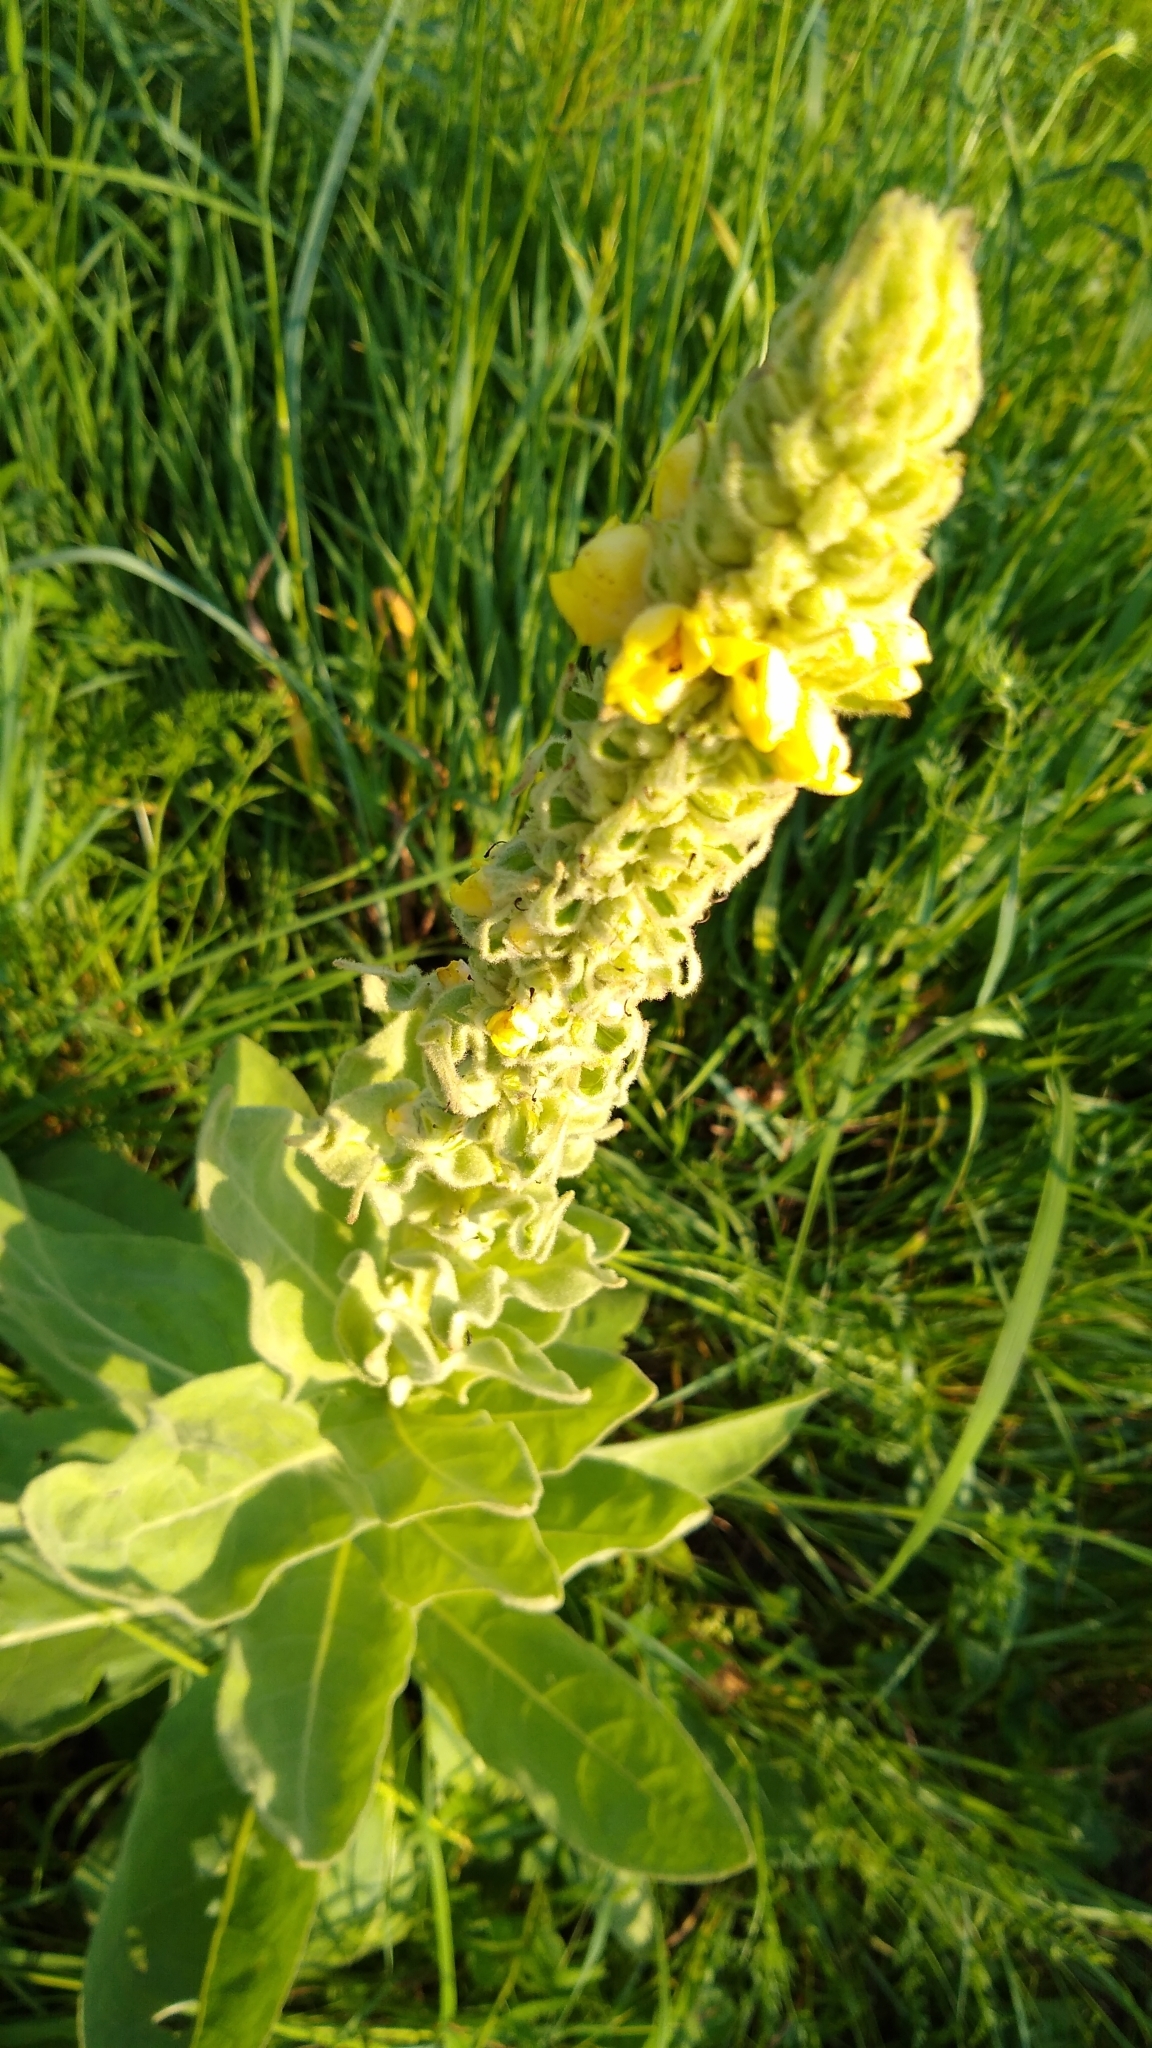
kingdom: Plantae
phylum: Tracheophyta
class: Magnoliopsida
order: Lamiales
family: Scrophulariaceae
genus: Verbascum
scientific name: Verbascum thapsus
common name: Common mullein
